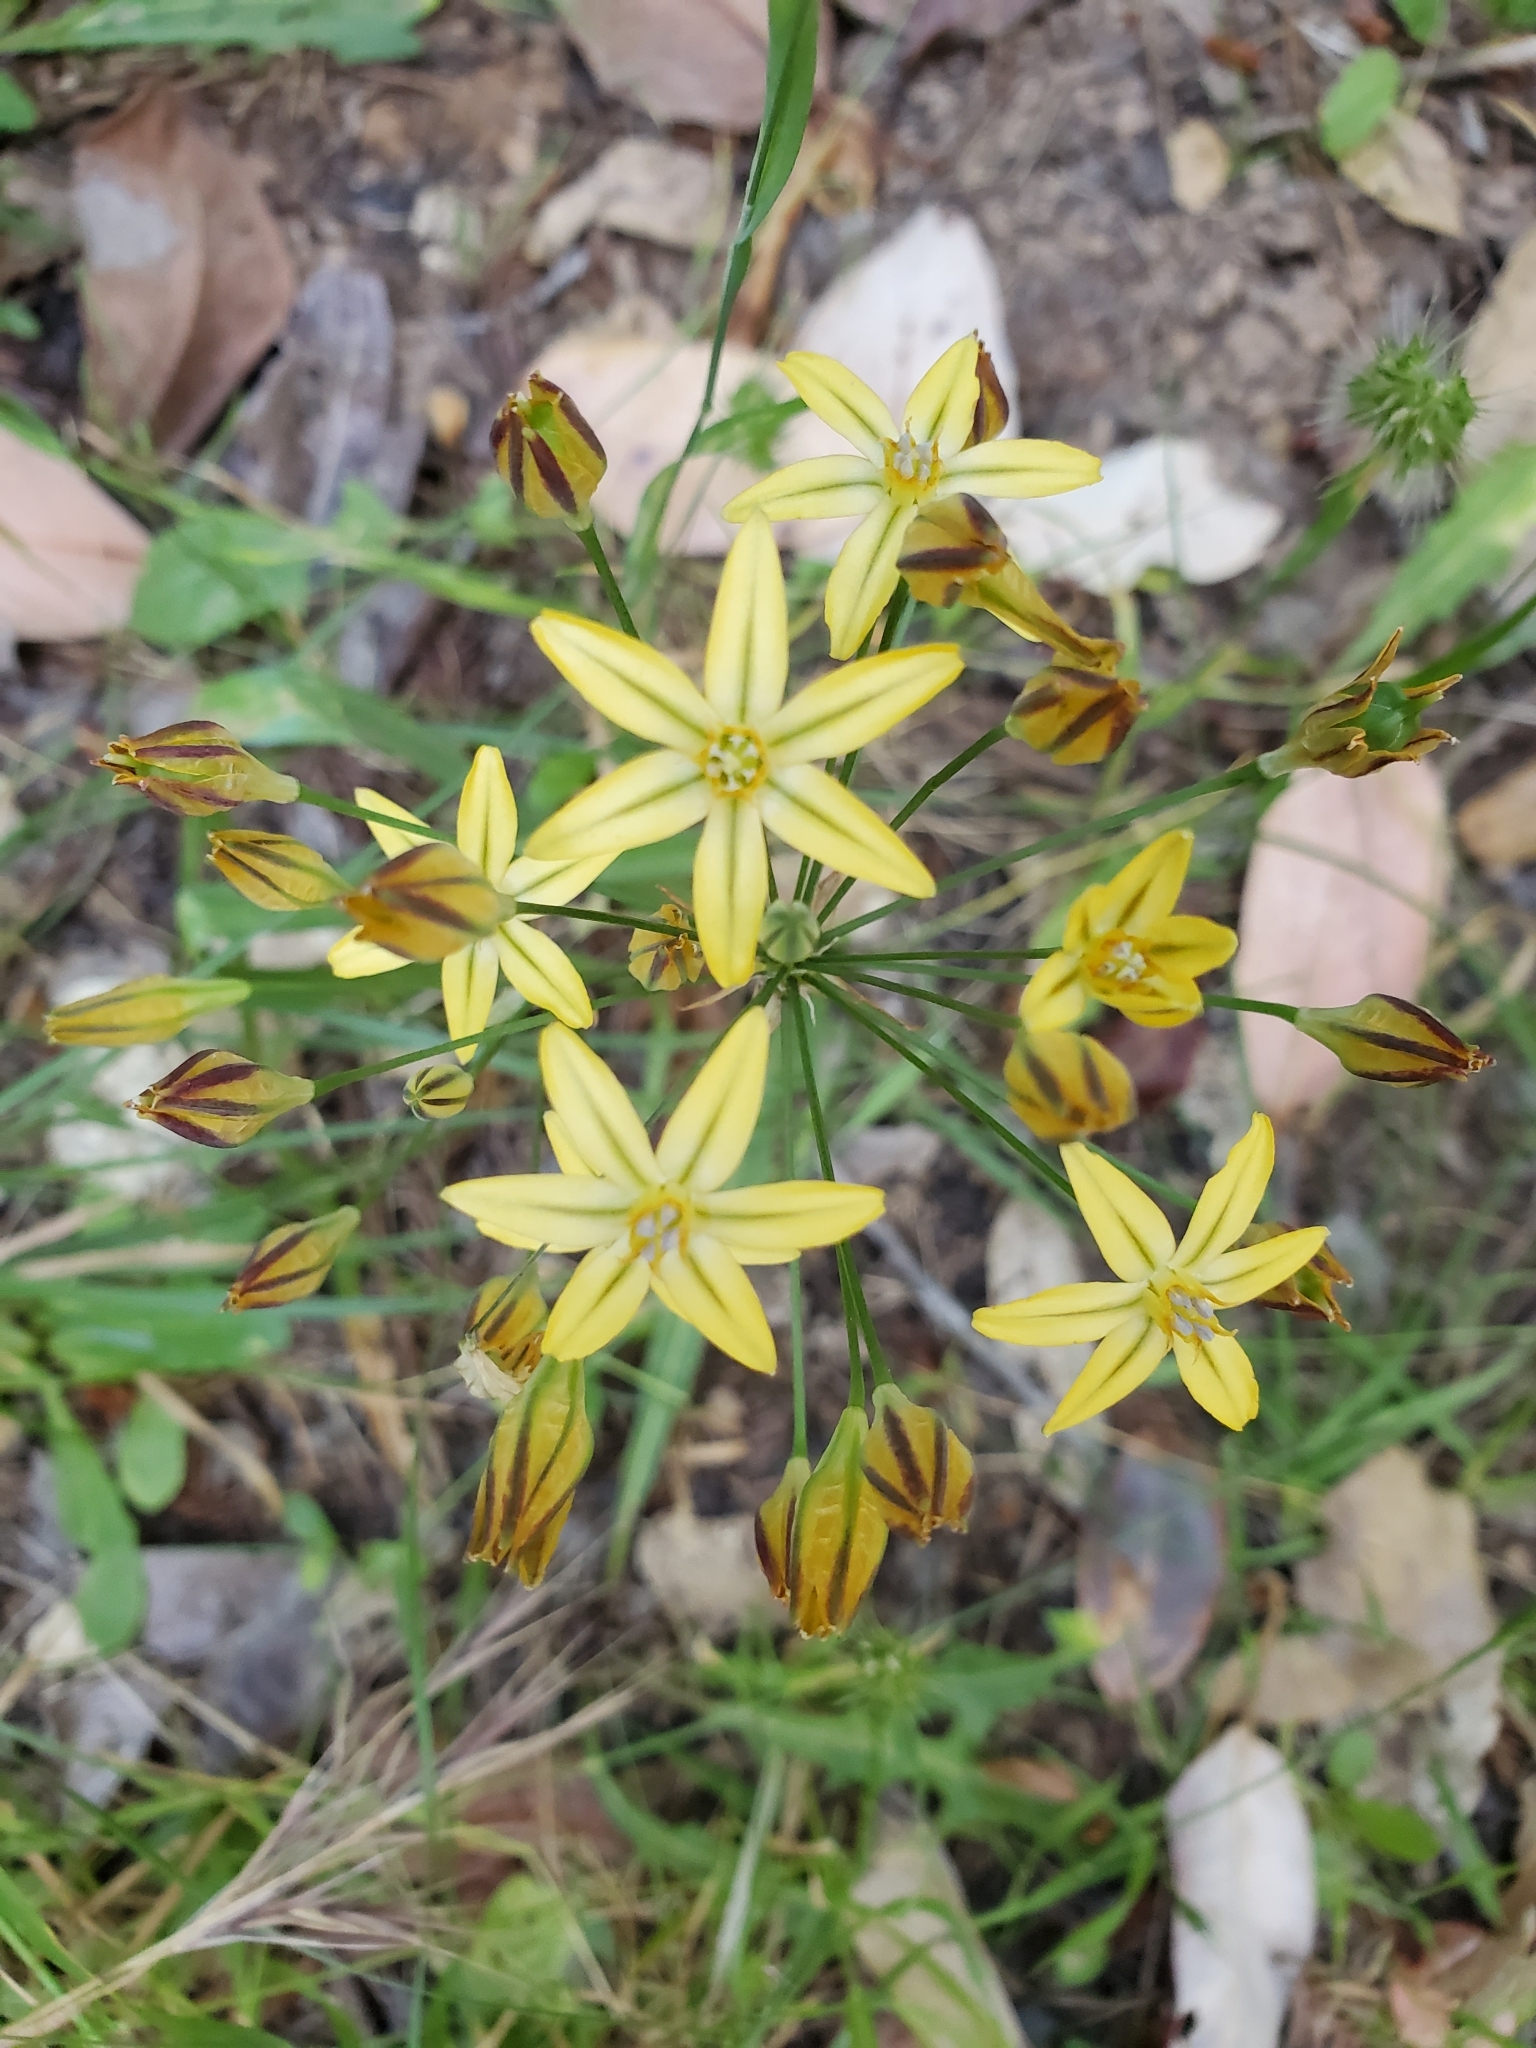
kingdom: Plantae
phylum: Tracheophyta
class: Liliopsida
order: Asparagales
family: Asparagaceae
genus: Triteleia
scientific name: Triteleia ixioides
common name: Yellow-brodiaea
